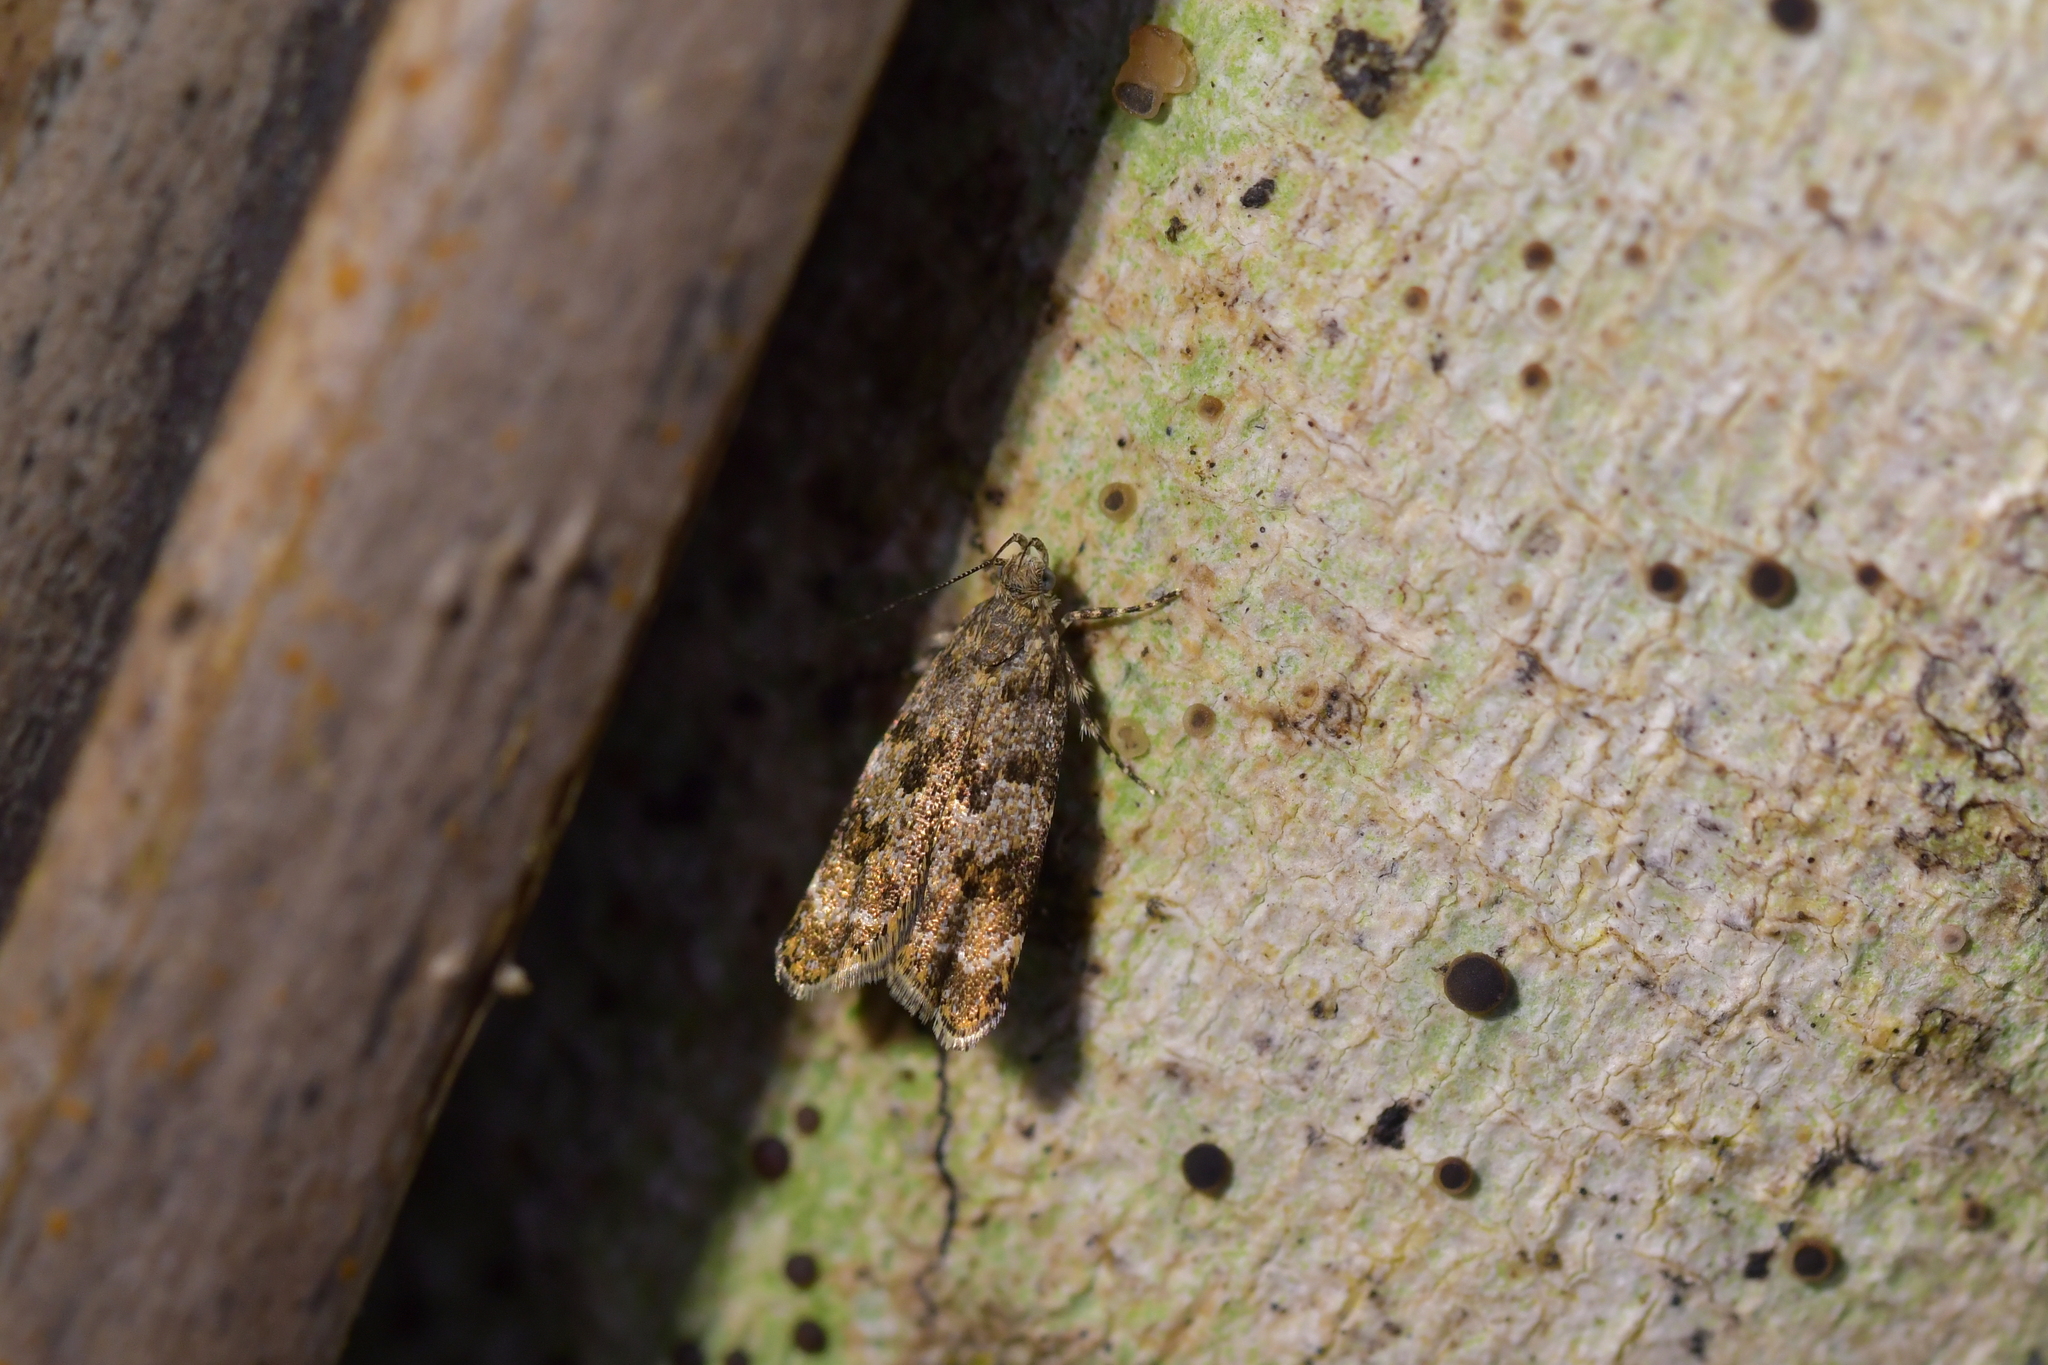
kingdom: Animalia
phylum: Arthropoda
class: Insecta
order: Lepidoptera
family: Oecophoridae
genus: Gymnobathra
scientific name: Gymnobathra omphalota
